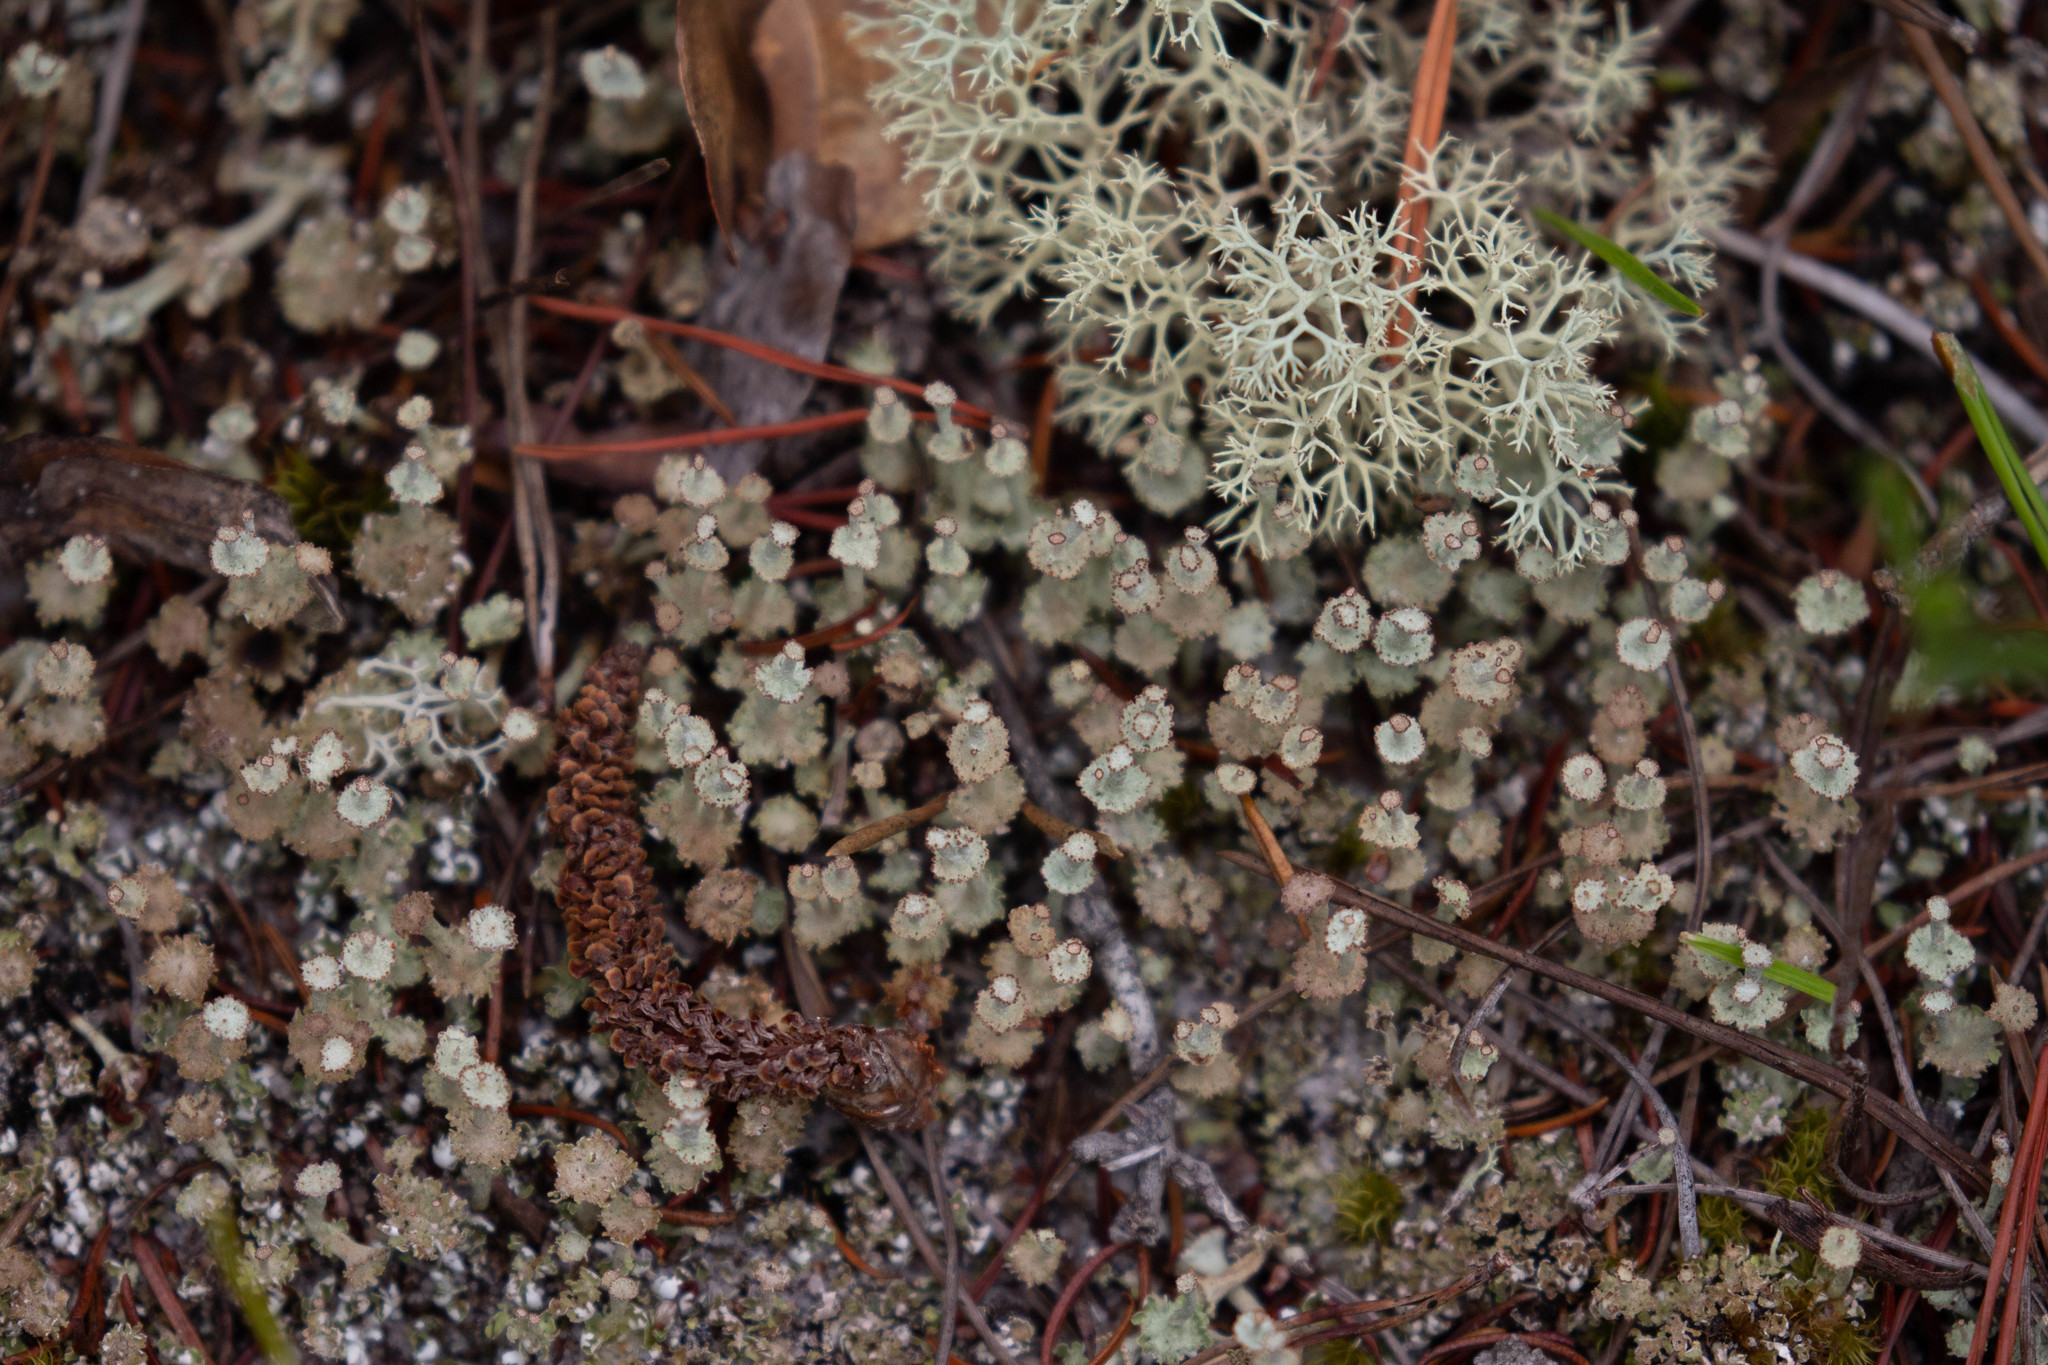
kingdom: Fungi
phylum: Ascomycota
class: Lecanoromycetes
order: Lecanorales
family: Cladoniaceae
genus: Cladonia
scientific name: Cladonia rappii
